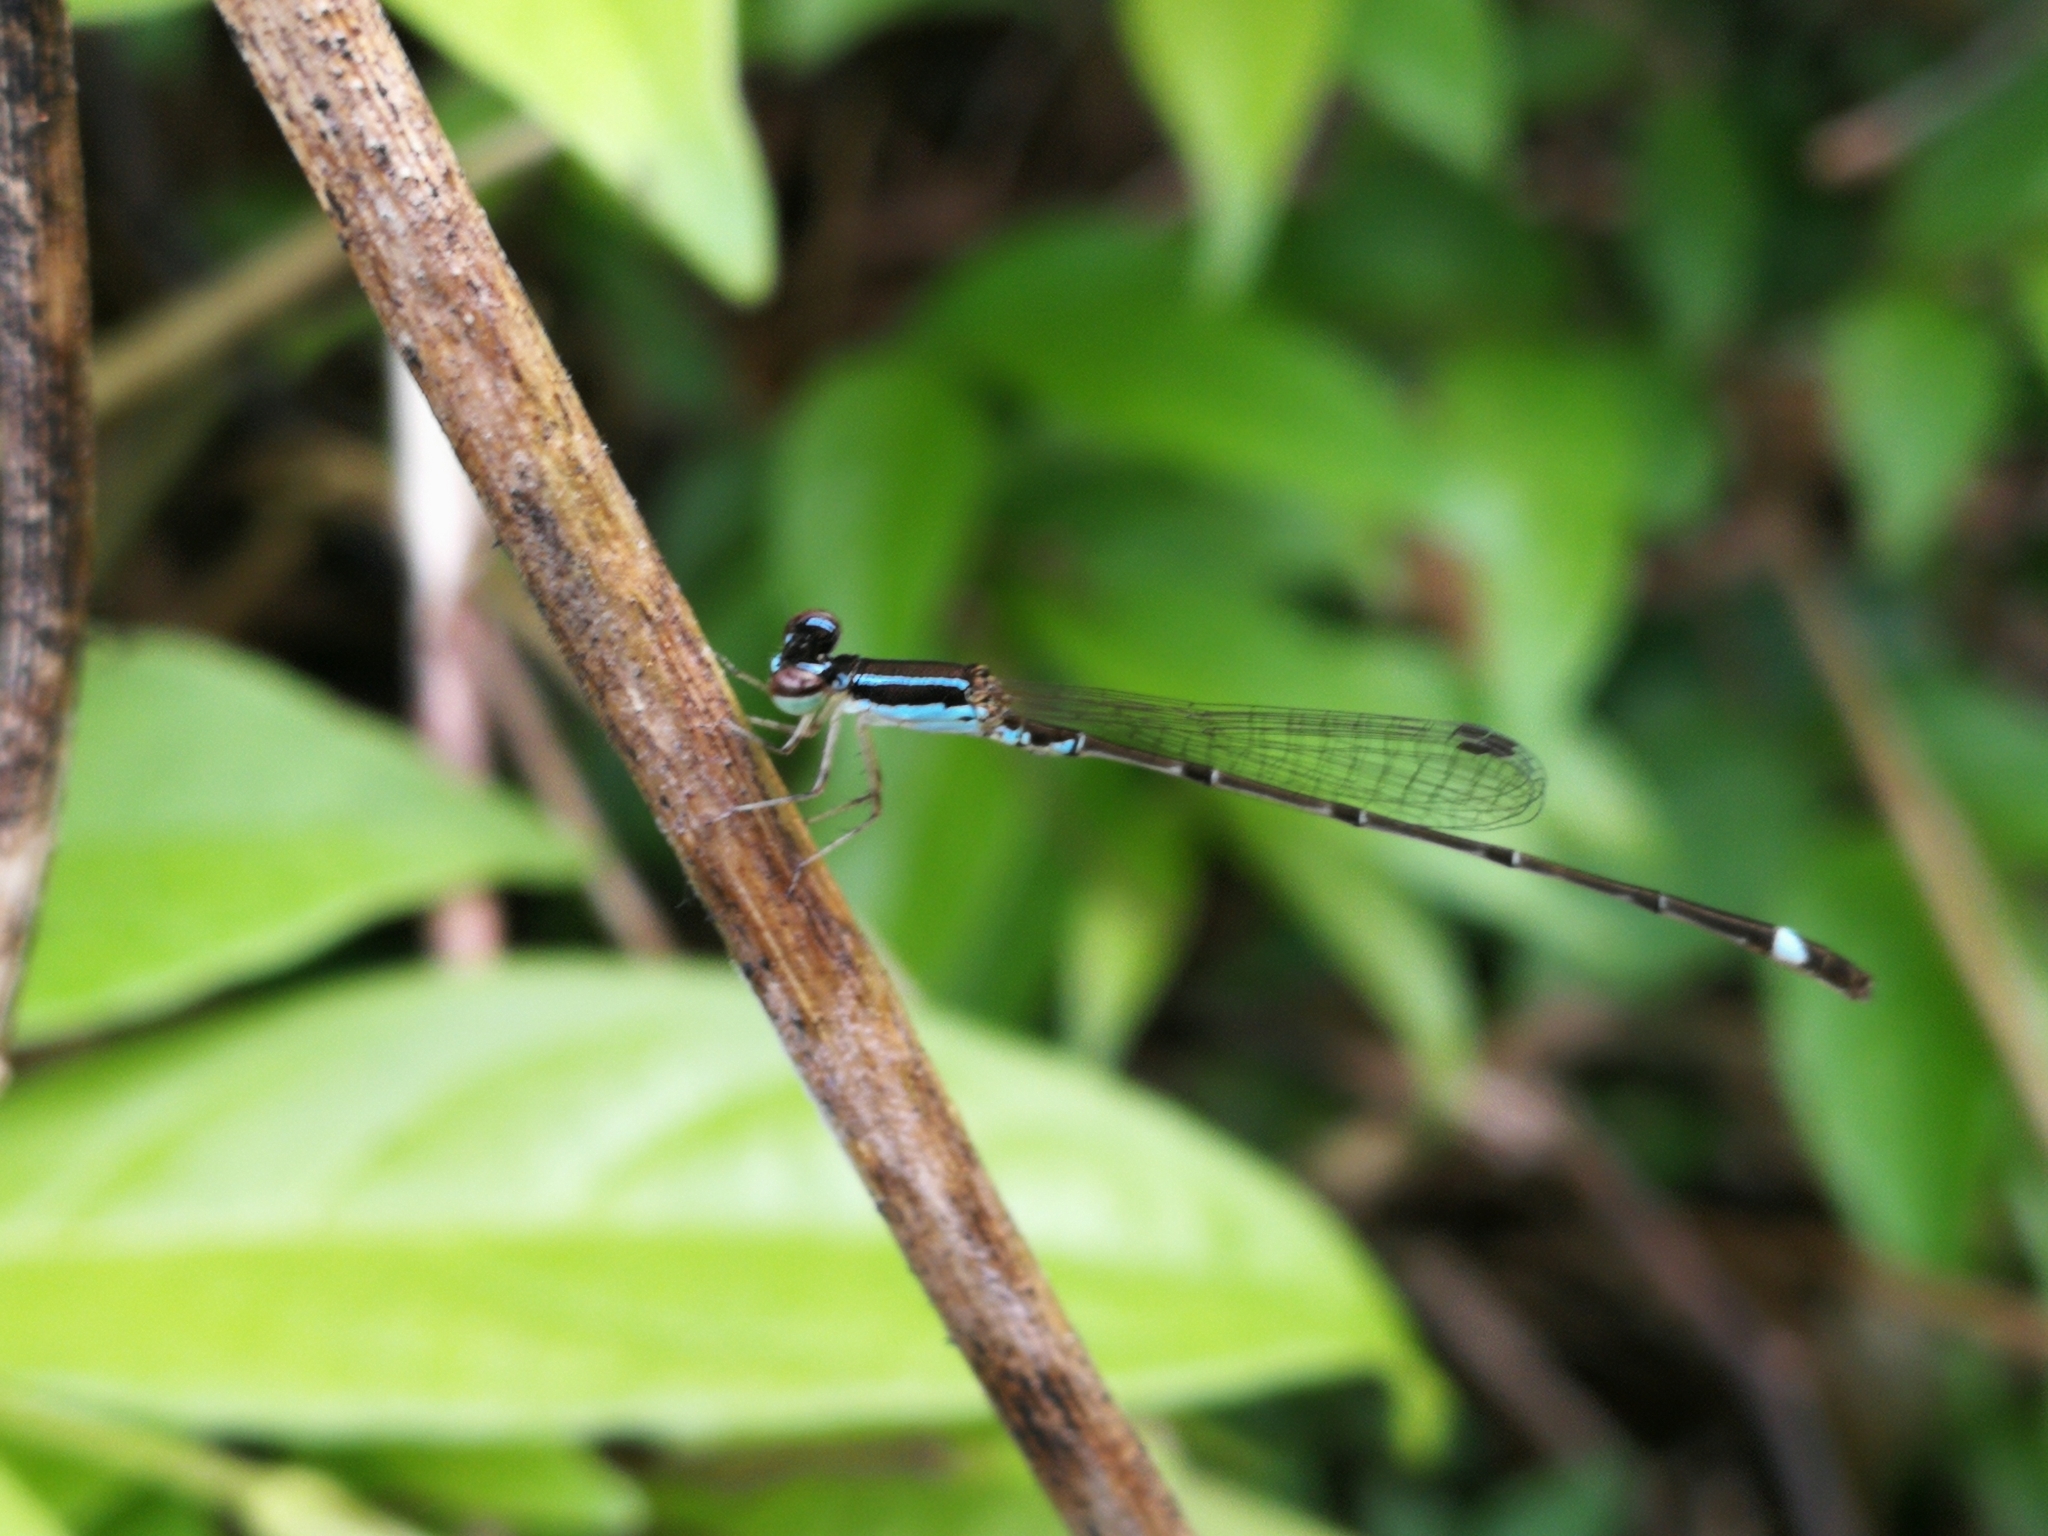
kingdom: Animalia
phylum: Arthropoda
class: Insecta
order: Odonata
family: Coenagrionidae
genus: Mortonagrion
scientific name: Mortonagrion varralli
